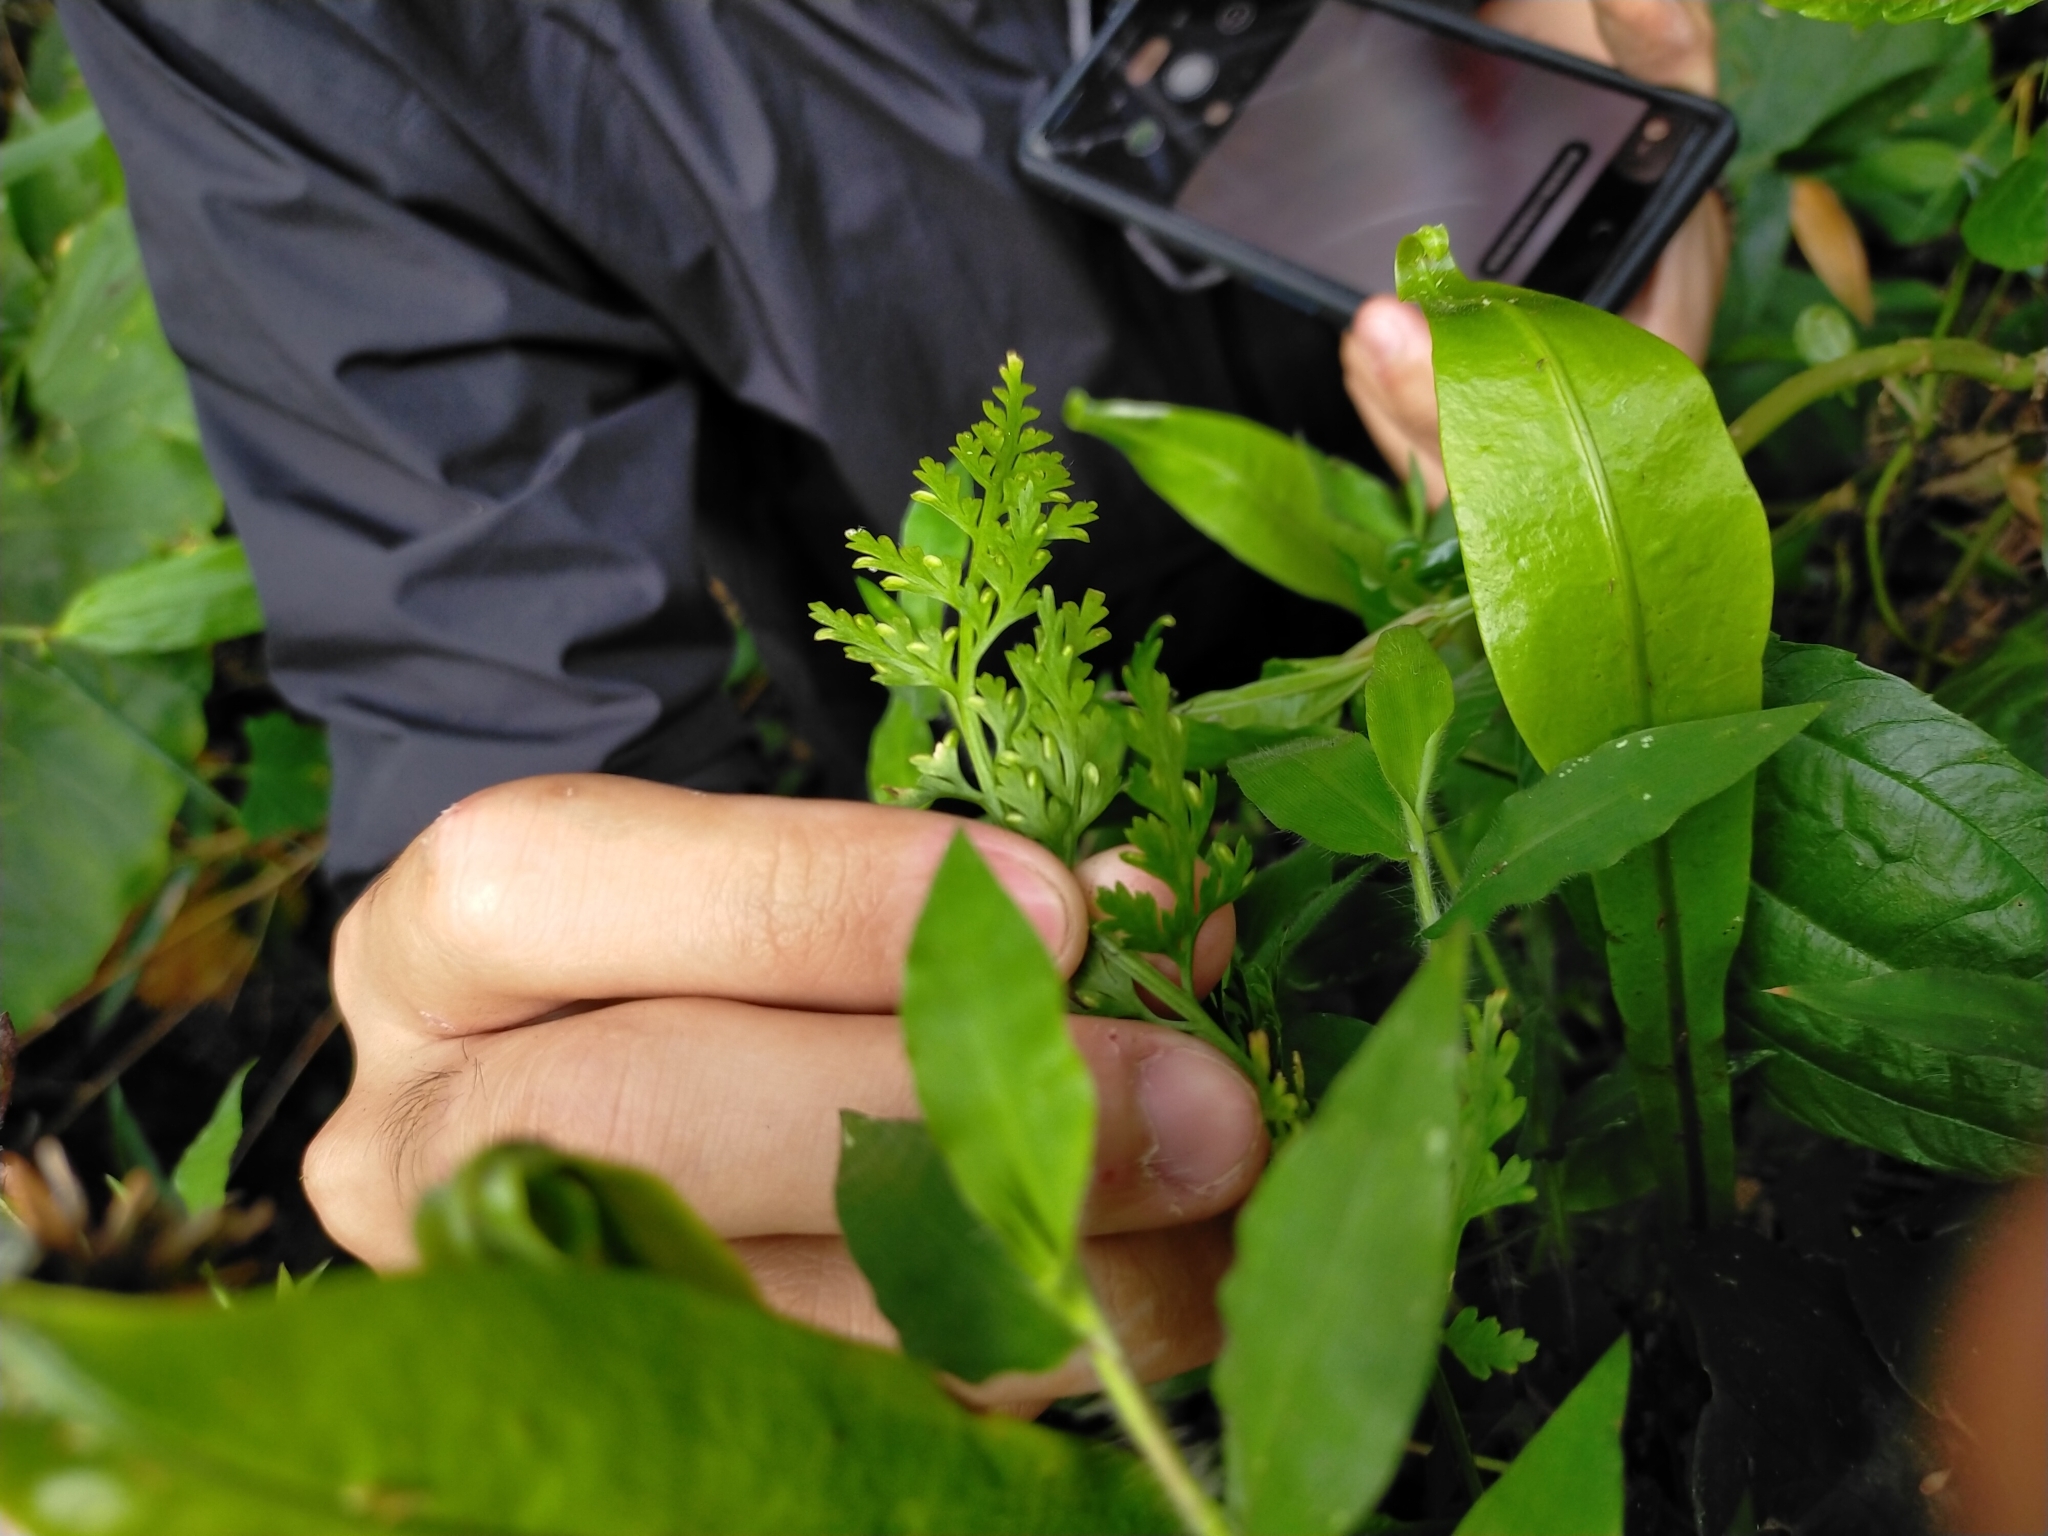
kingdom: Plantae
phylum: Tracheophyta
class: Polypodiopsida
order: Polypodiales
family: Aspleniaceae
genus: Asplenium
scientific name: Asplenium ritoense
